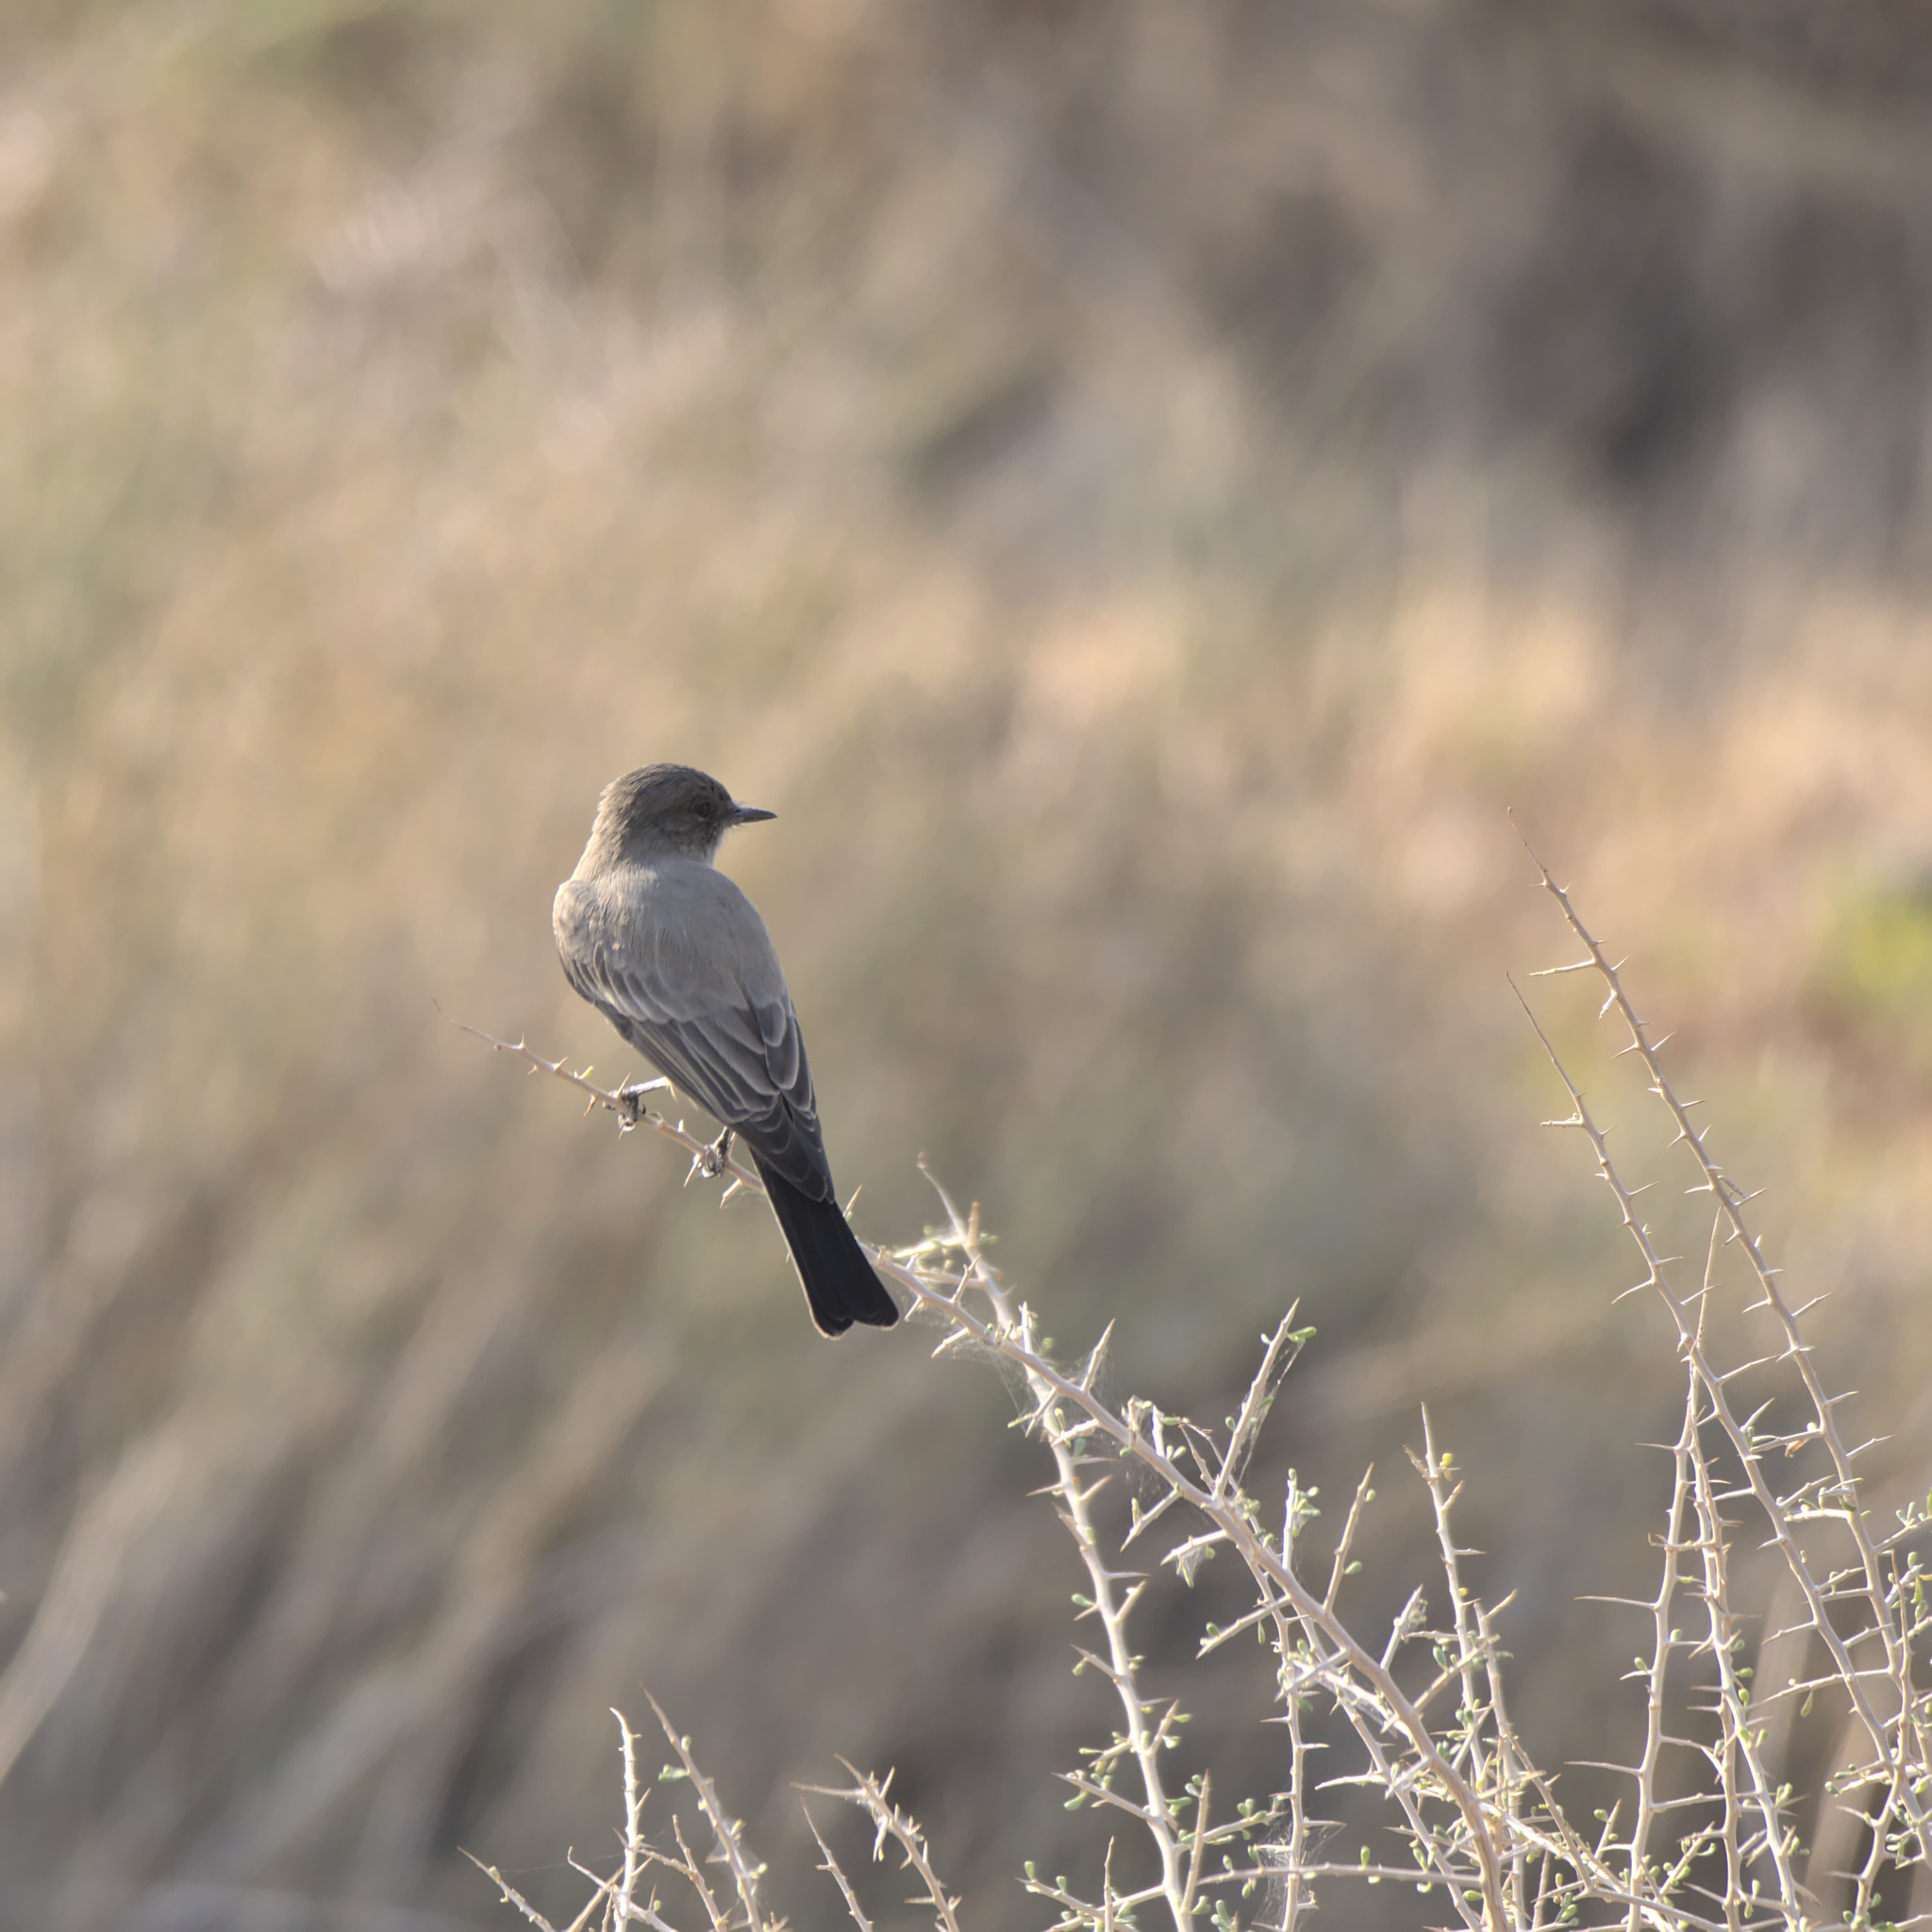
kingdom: Animalia
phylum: Chordata
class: Aves
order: Passeriformes
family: Tyrannidae
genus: Sayornis
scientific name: Sayornis saya
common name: Say's phoebe
